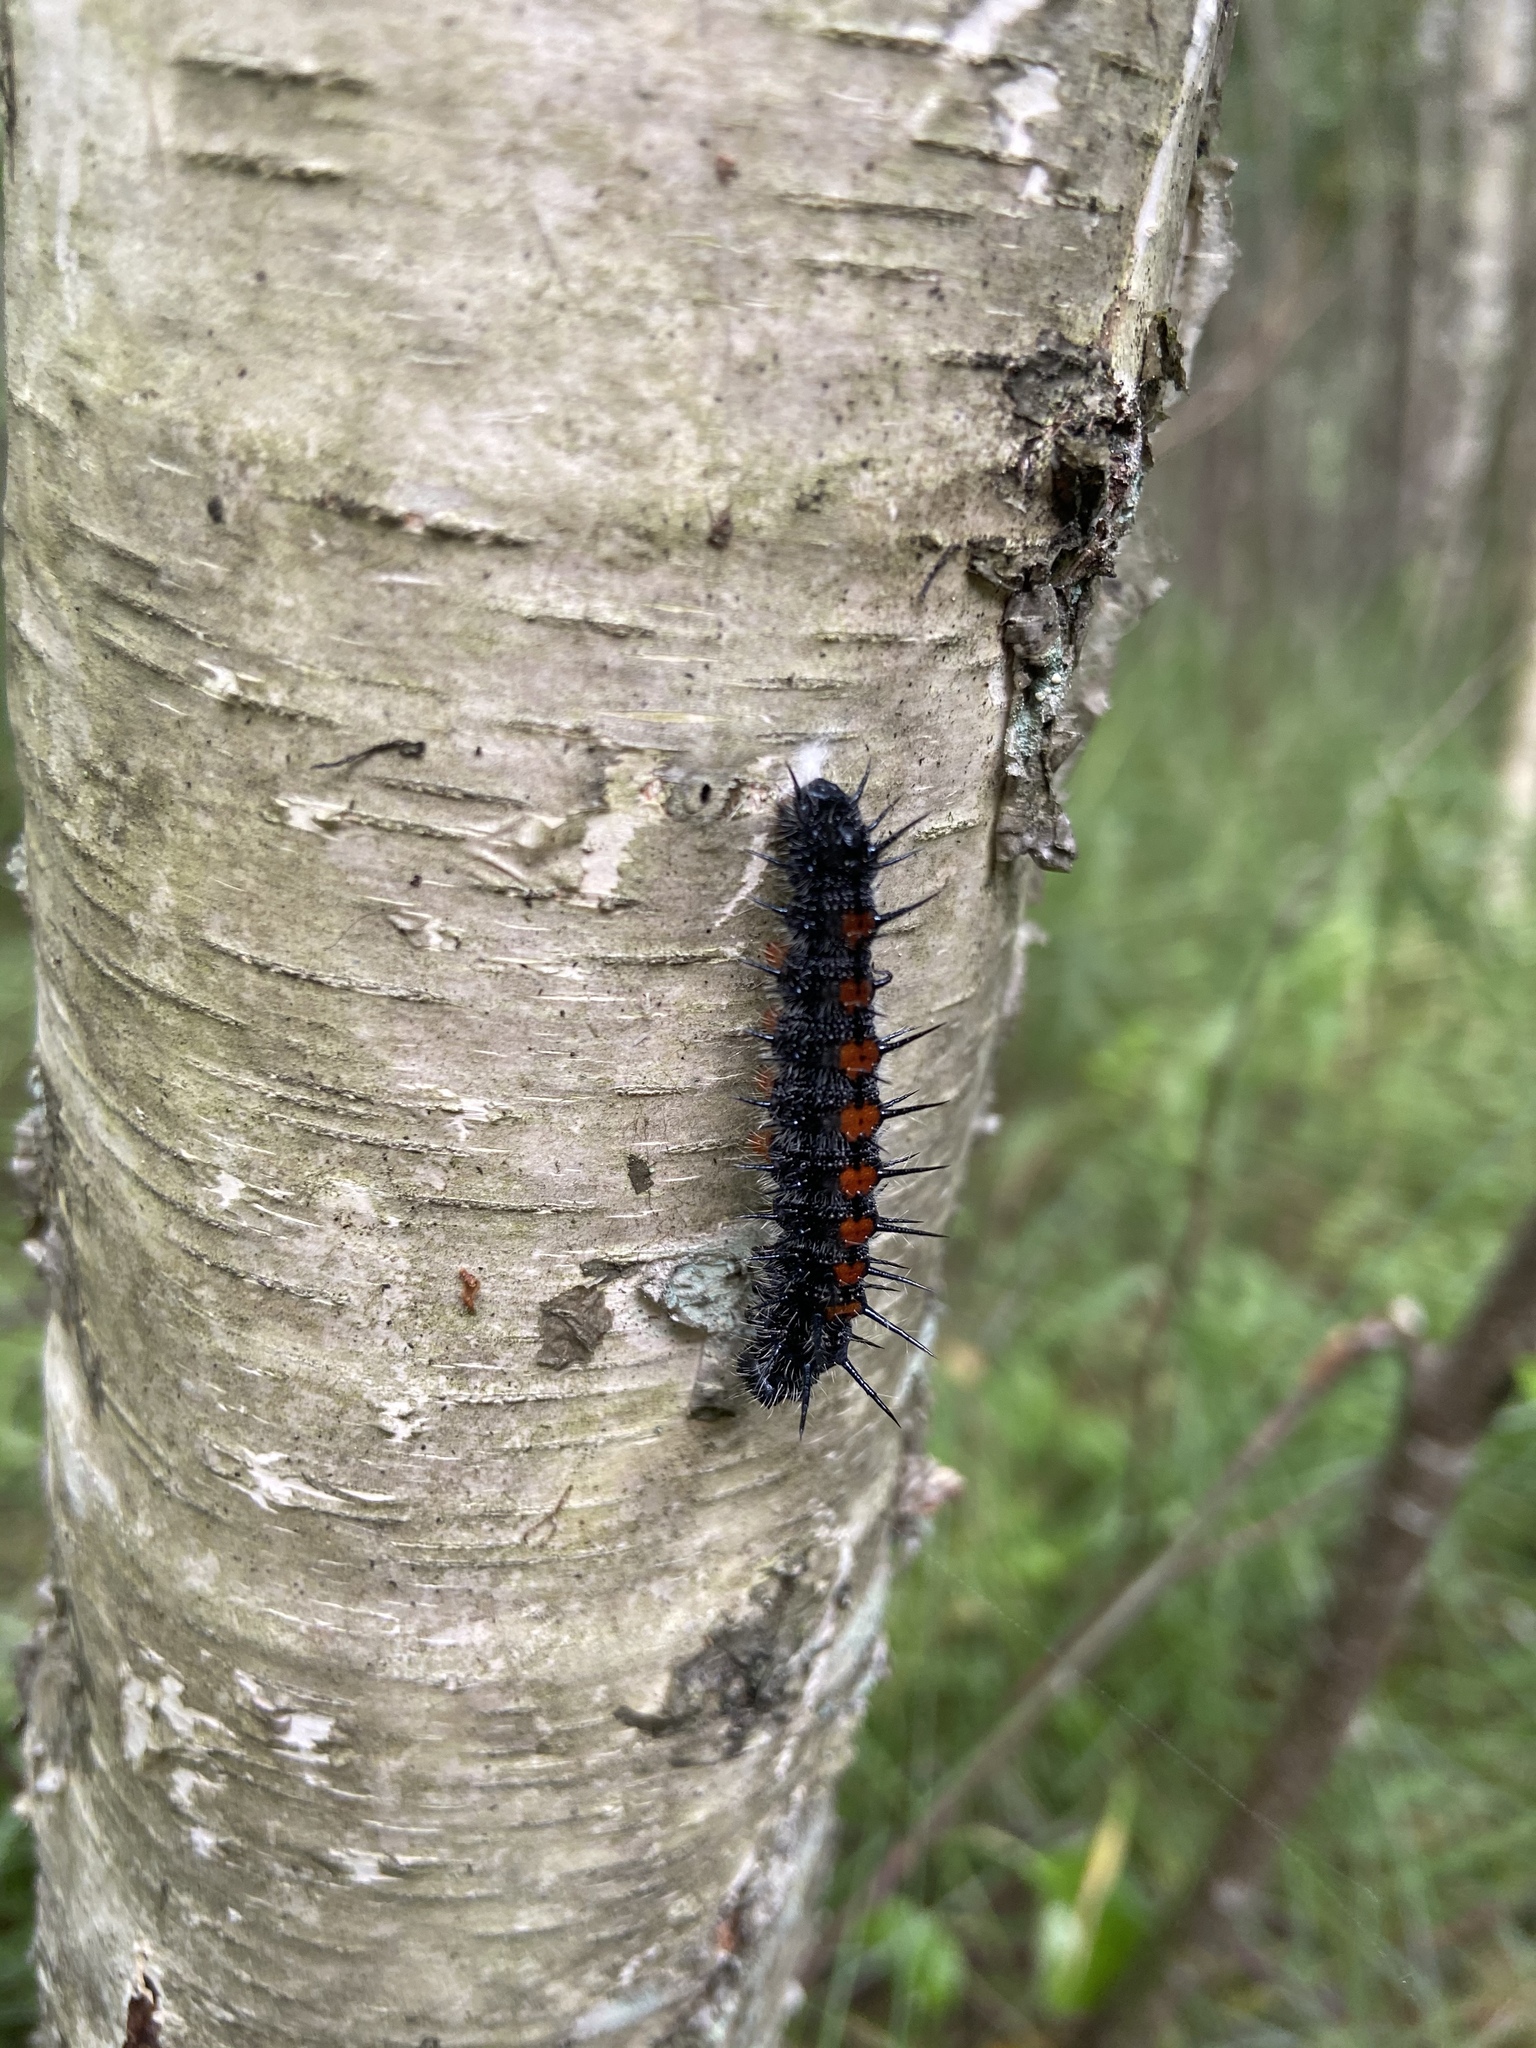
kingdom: Animalia
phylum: Arthropoda
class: Insecta
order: Lepidoptera
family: Nymphalidae
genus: Nymphalis
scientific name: Nymphalis antiopa
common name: Camberwell beauty
